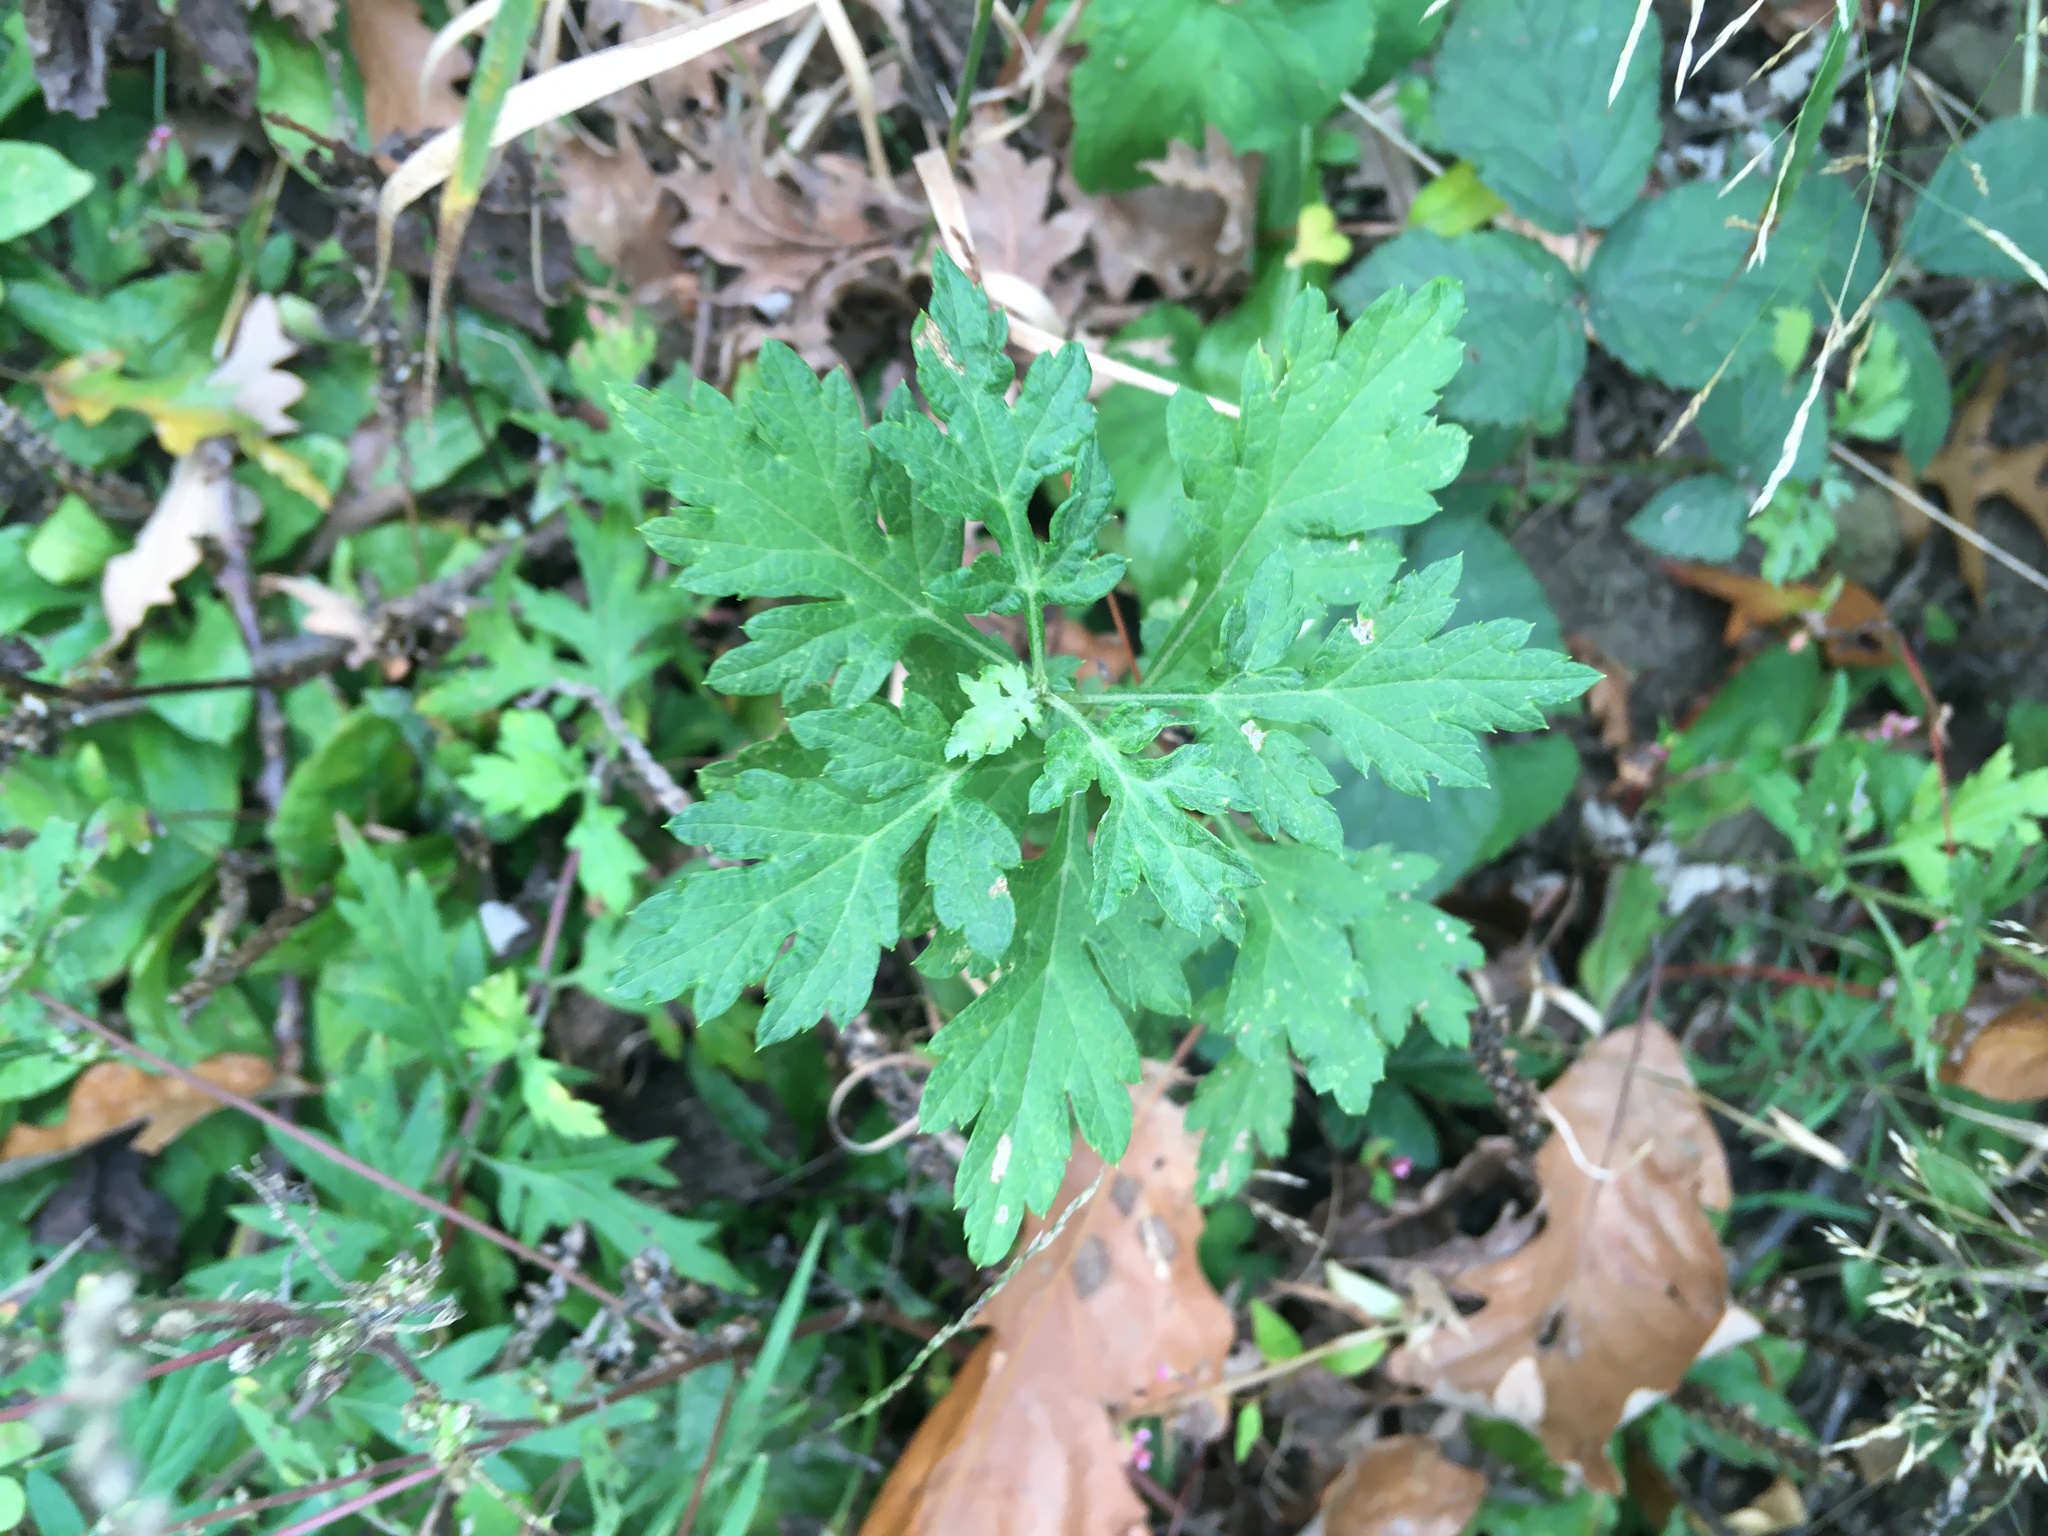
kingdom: Plantae
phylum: Tracheophyta
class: Magnoliopsida
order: Asterales
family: Asteraceae
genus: Artemisia
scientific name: Artemisia vulgaris
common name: Mugwort
